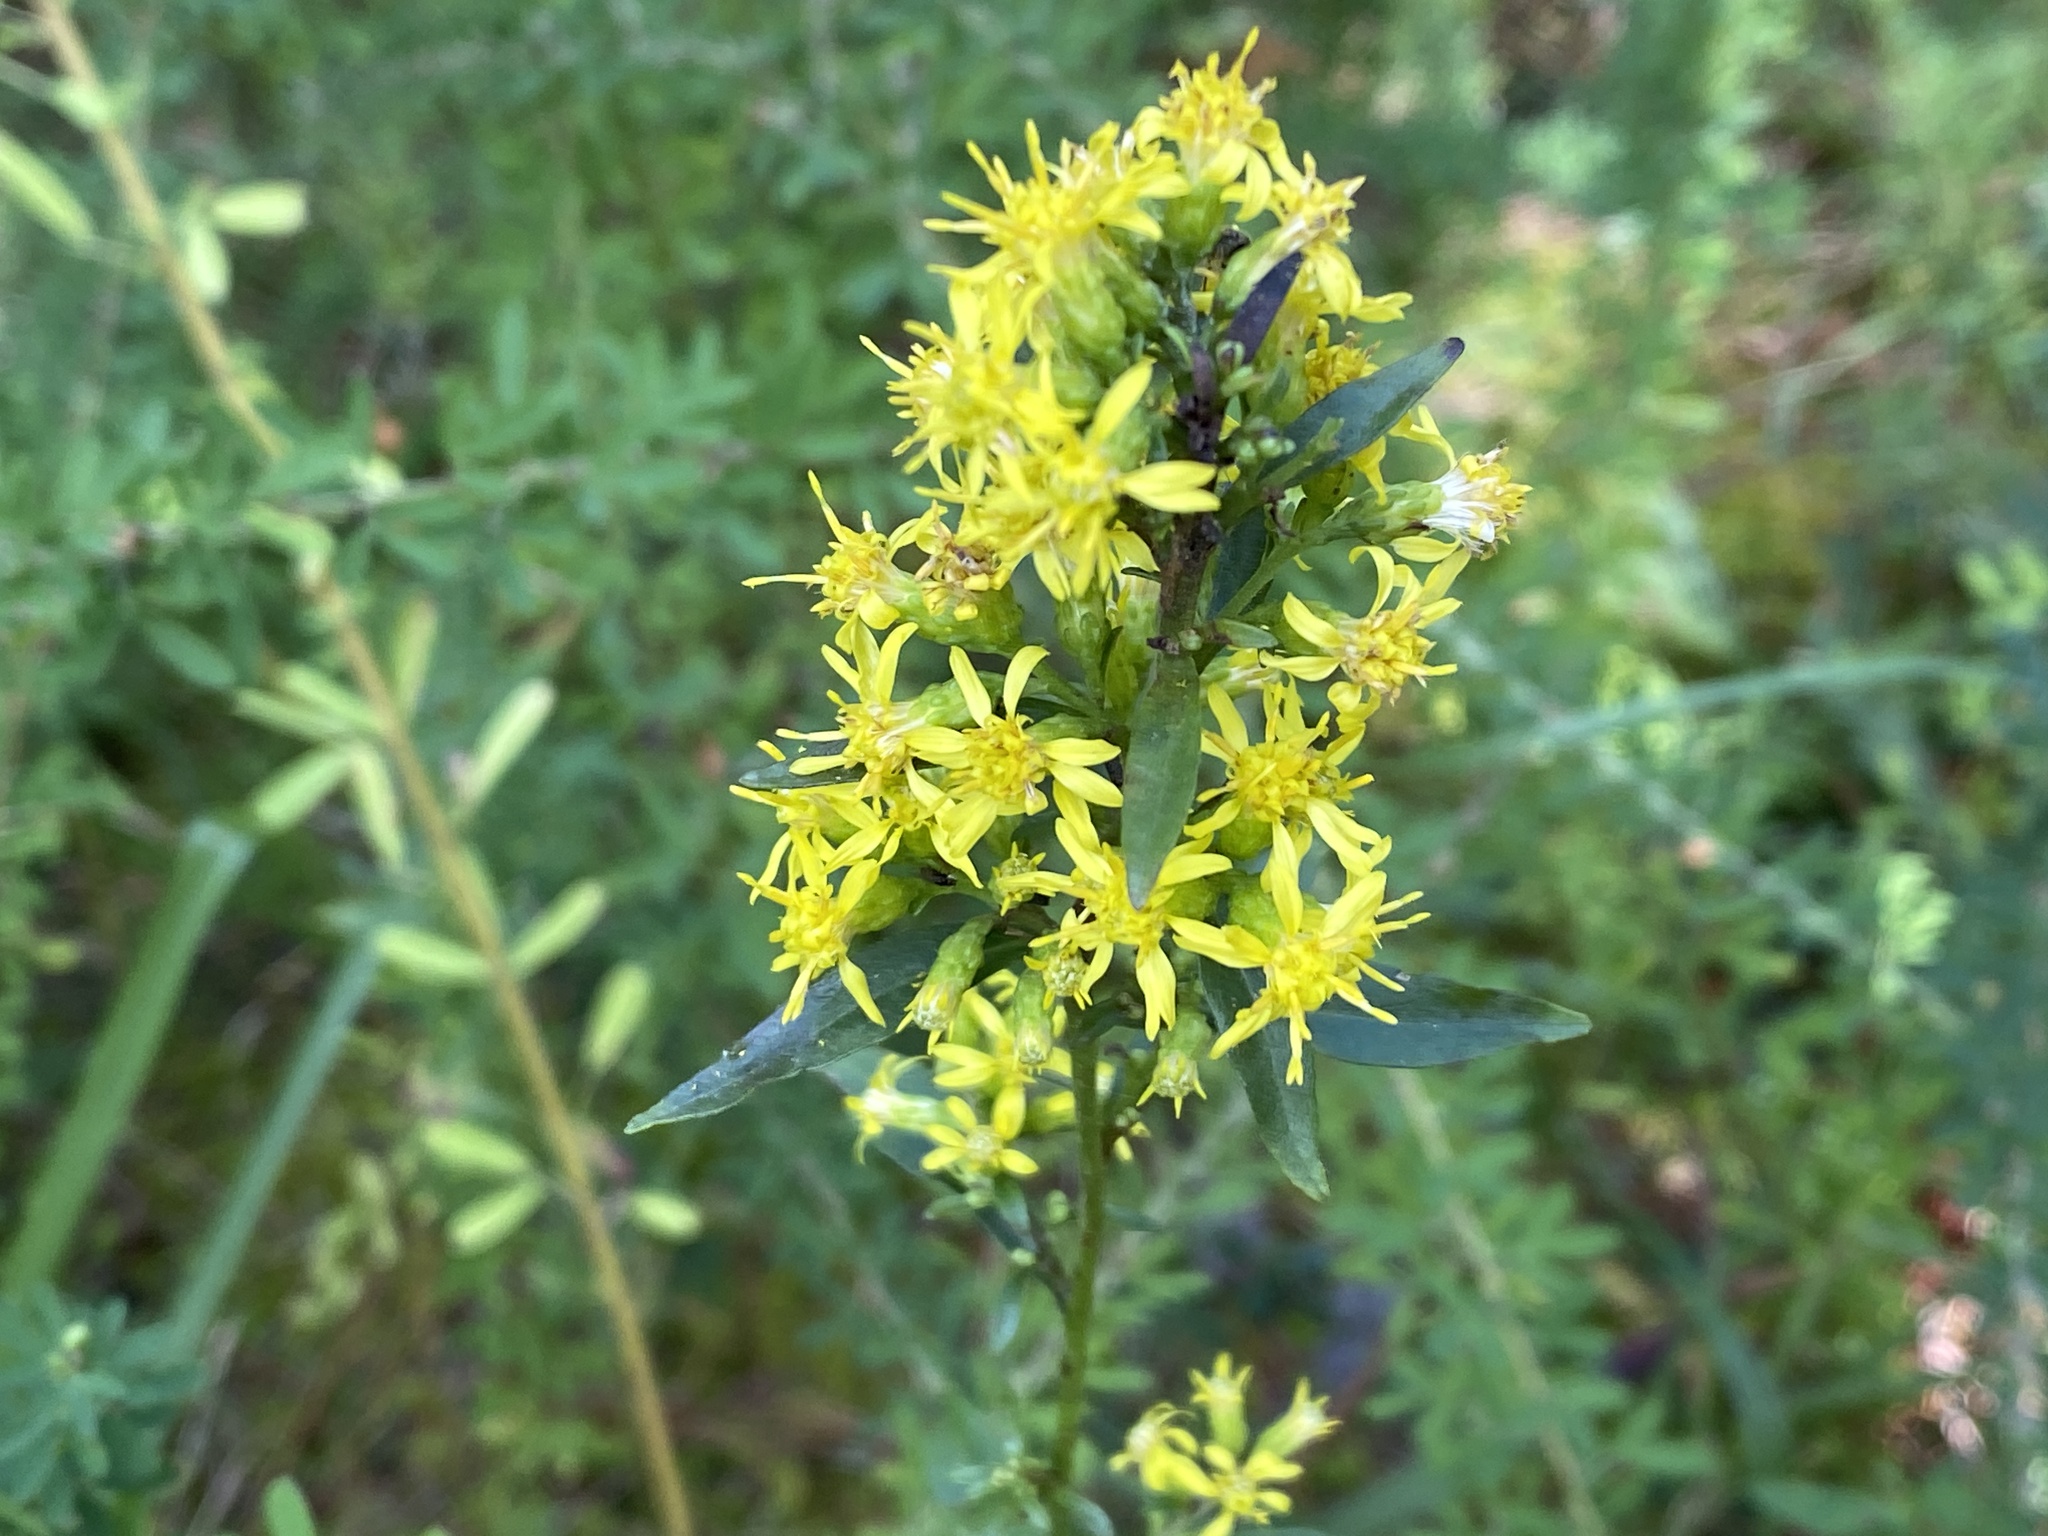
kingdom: Plantae
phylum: Tracheophyta
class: Magnoliopsida
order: Asterales
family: Asteraceae
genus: Solidago
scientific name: Solidago erecta
